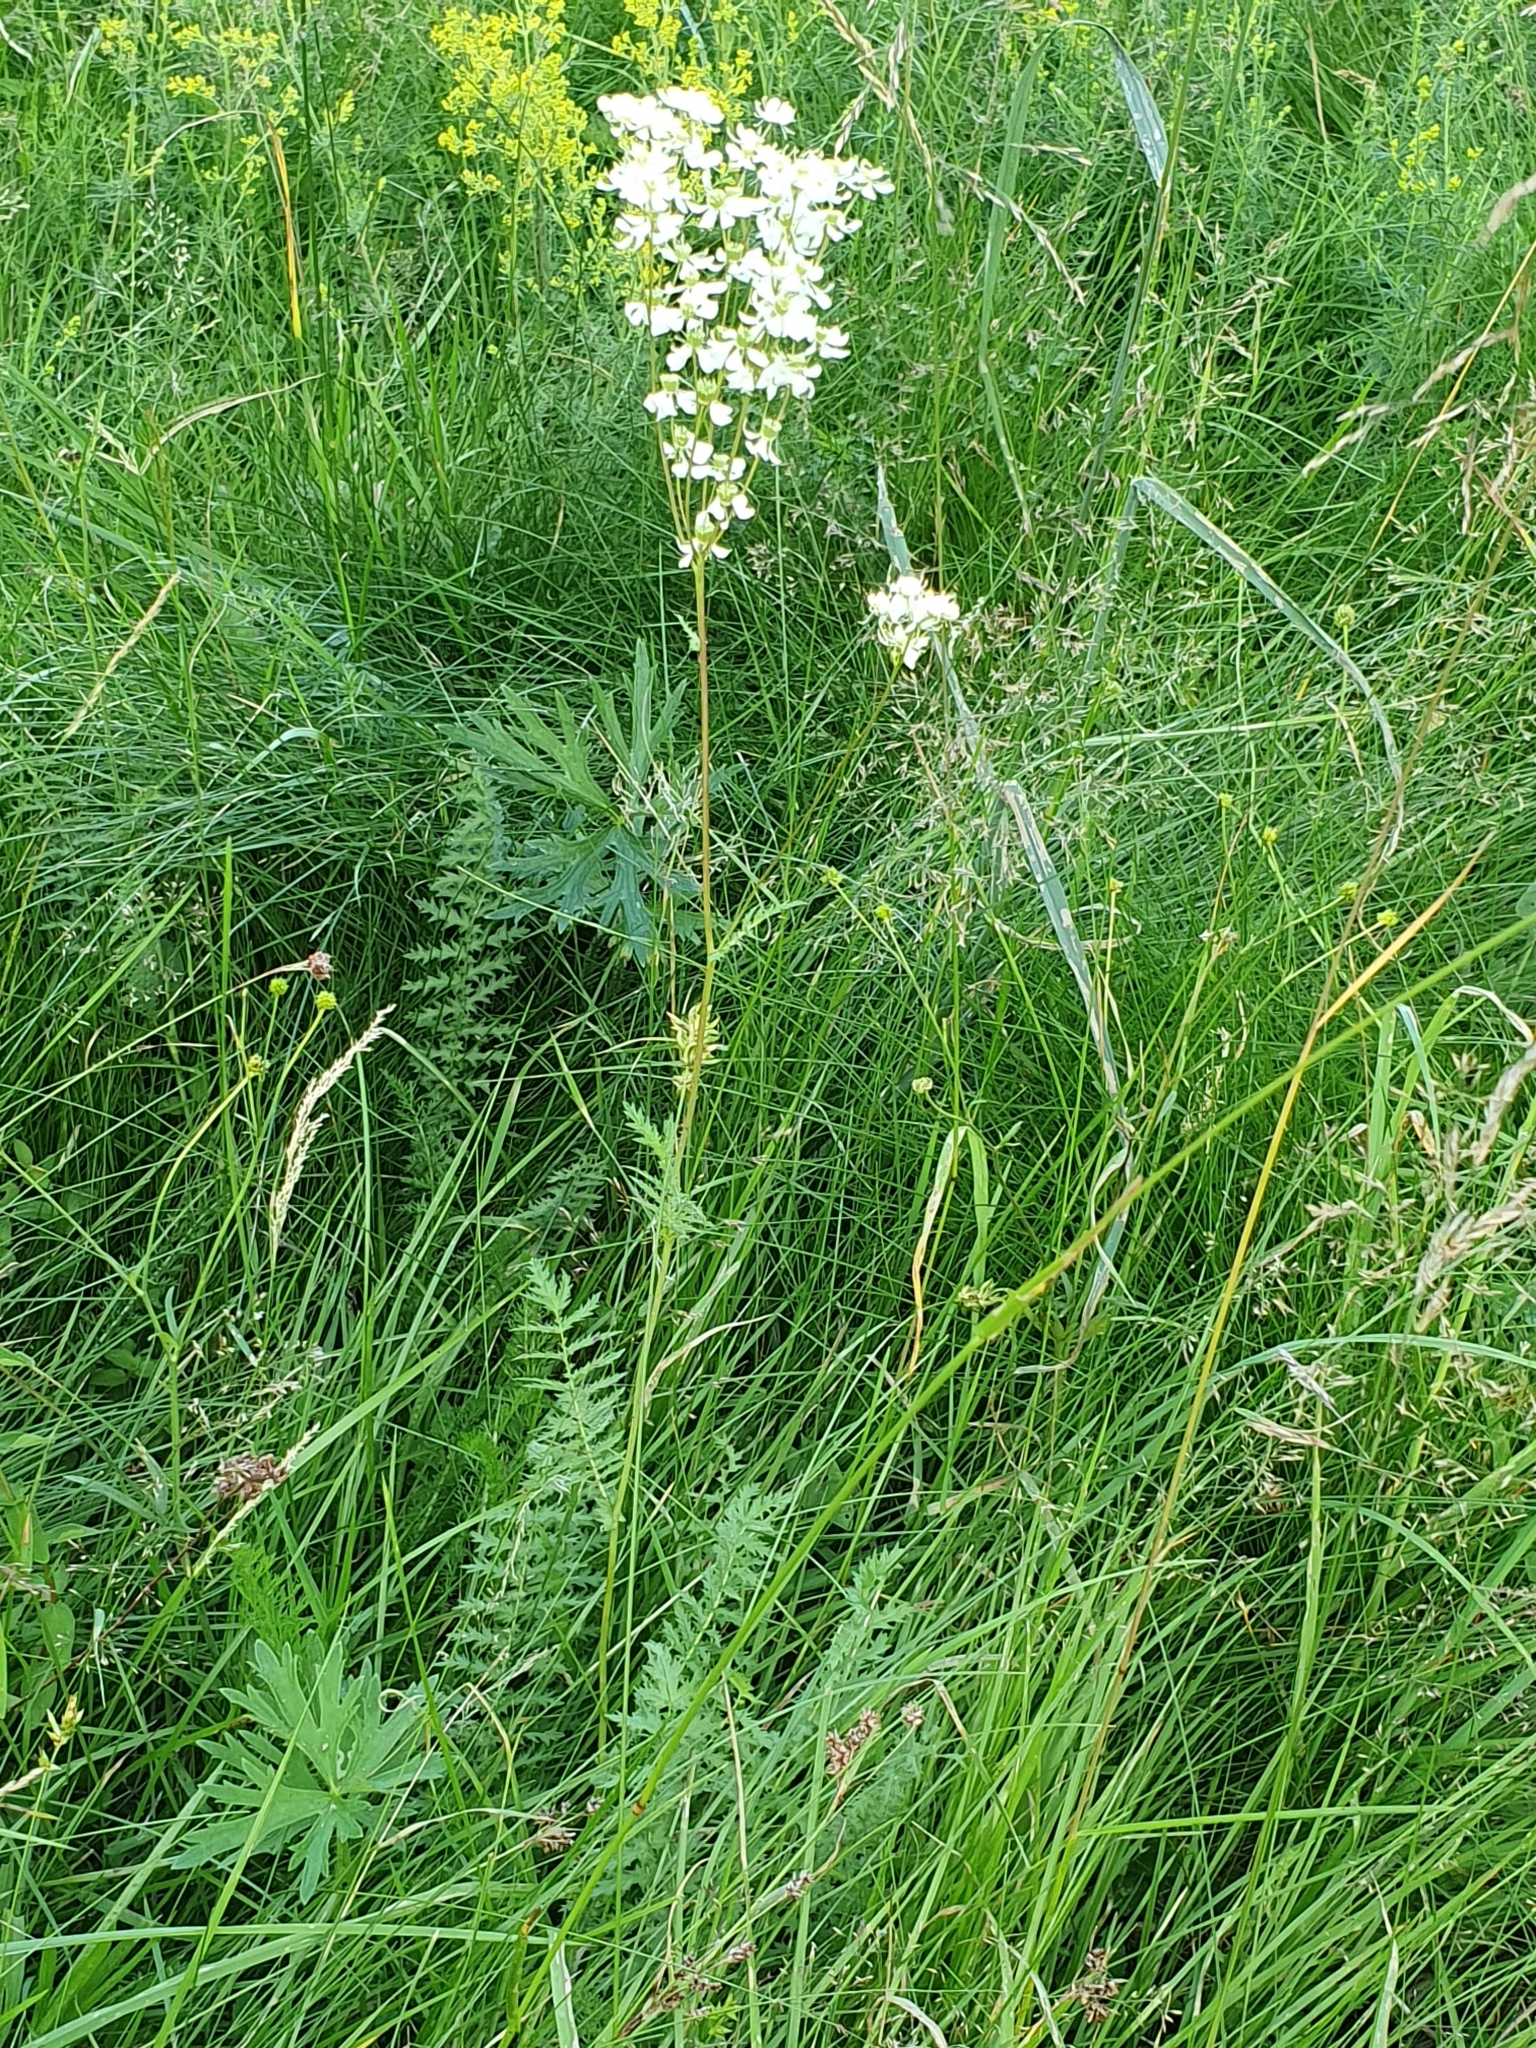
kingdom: Plantae
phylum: Tracheophyta
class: Magnoliopsida
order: Rosales
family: Rosaceae
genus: Filipendula
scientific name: Filipendula vulgaris
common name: Dropwort
